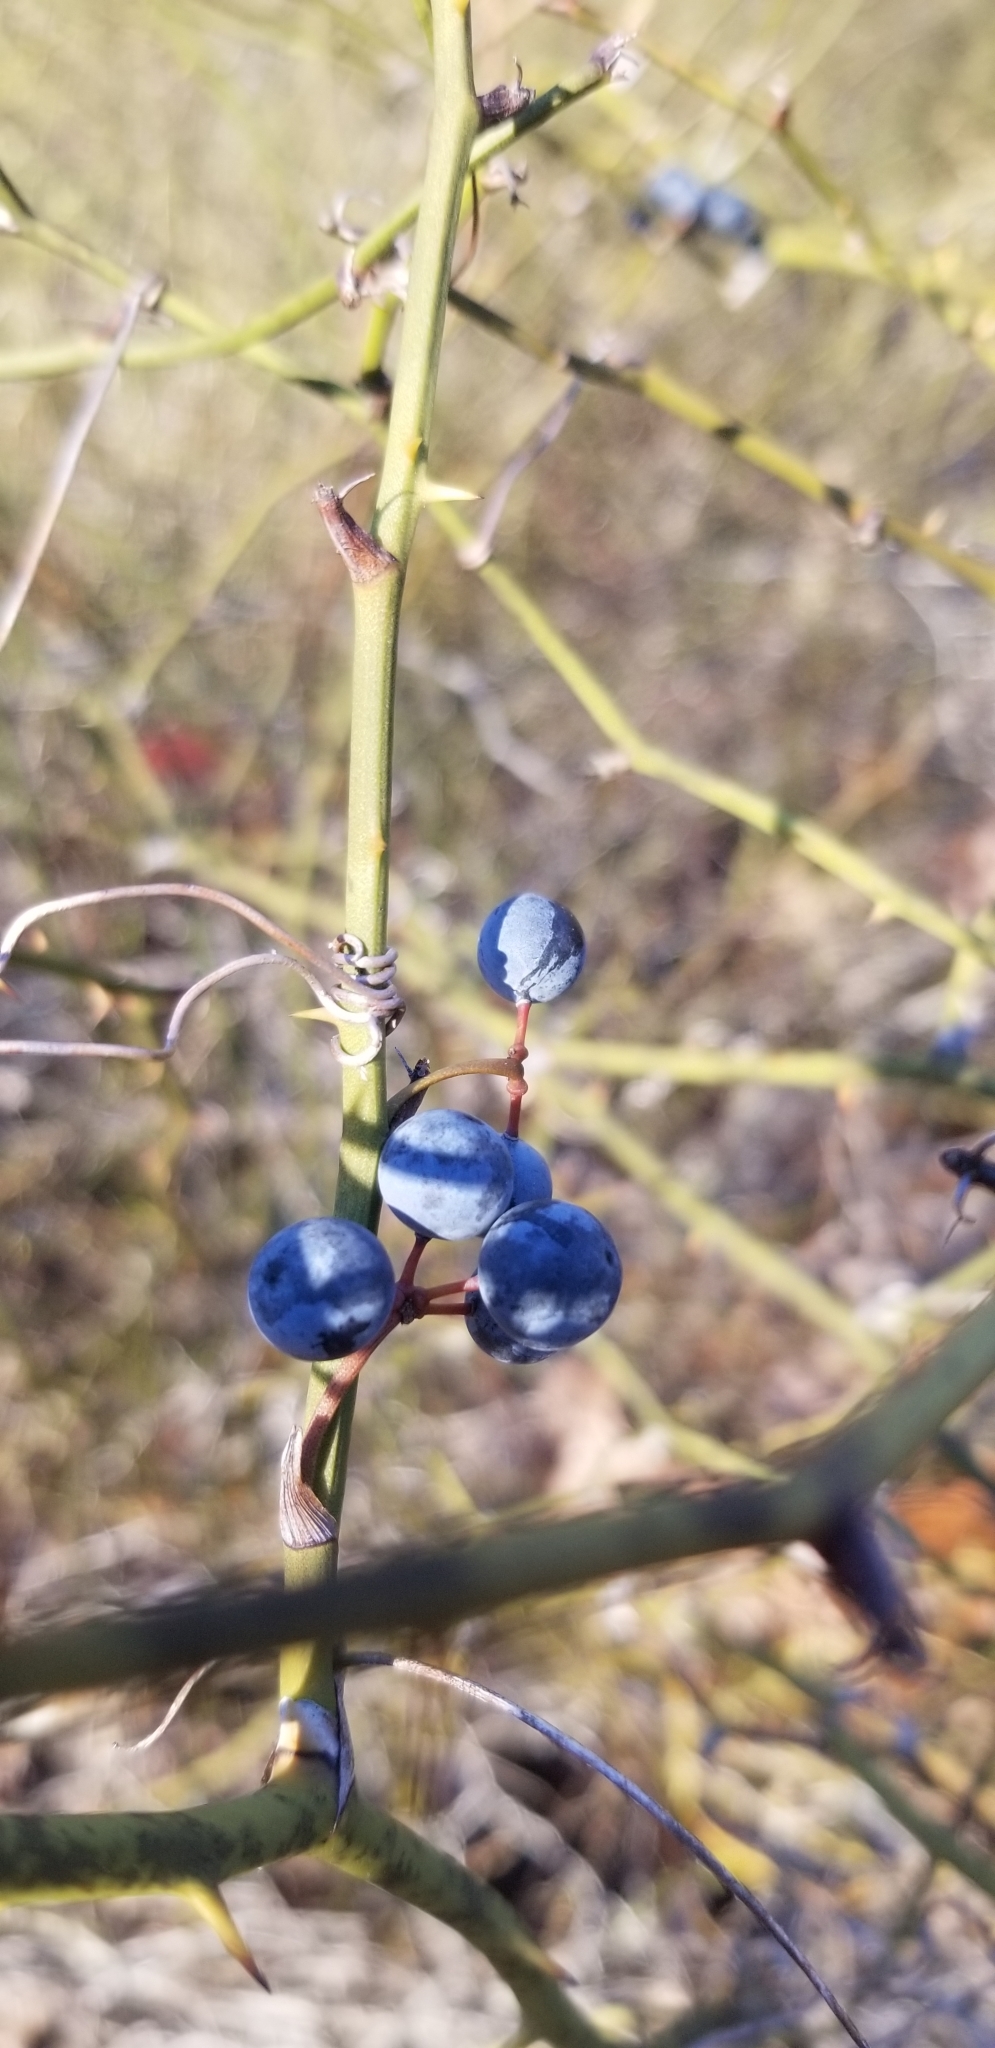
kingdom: Plantae
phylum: Tracheophyta
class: Liliopsida
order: Liliales
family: Smilacaceae
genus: Smilax
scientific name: Smilax rotundifolia
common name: Bullbriar
